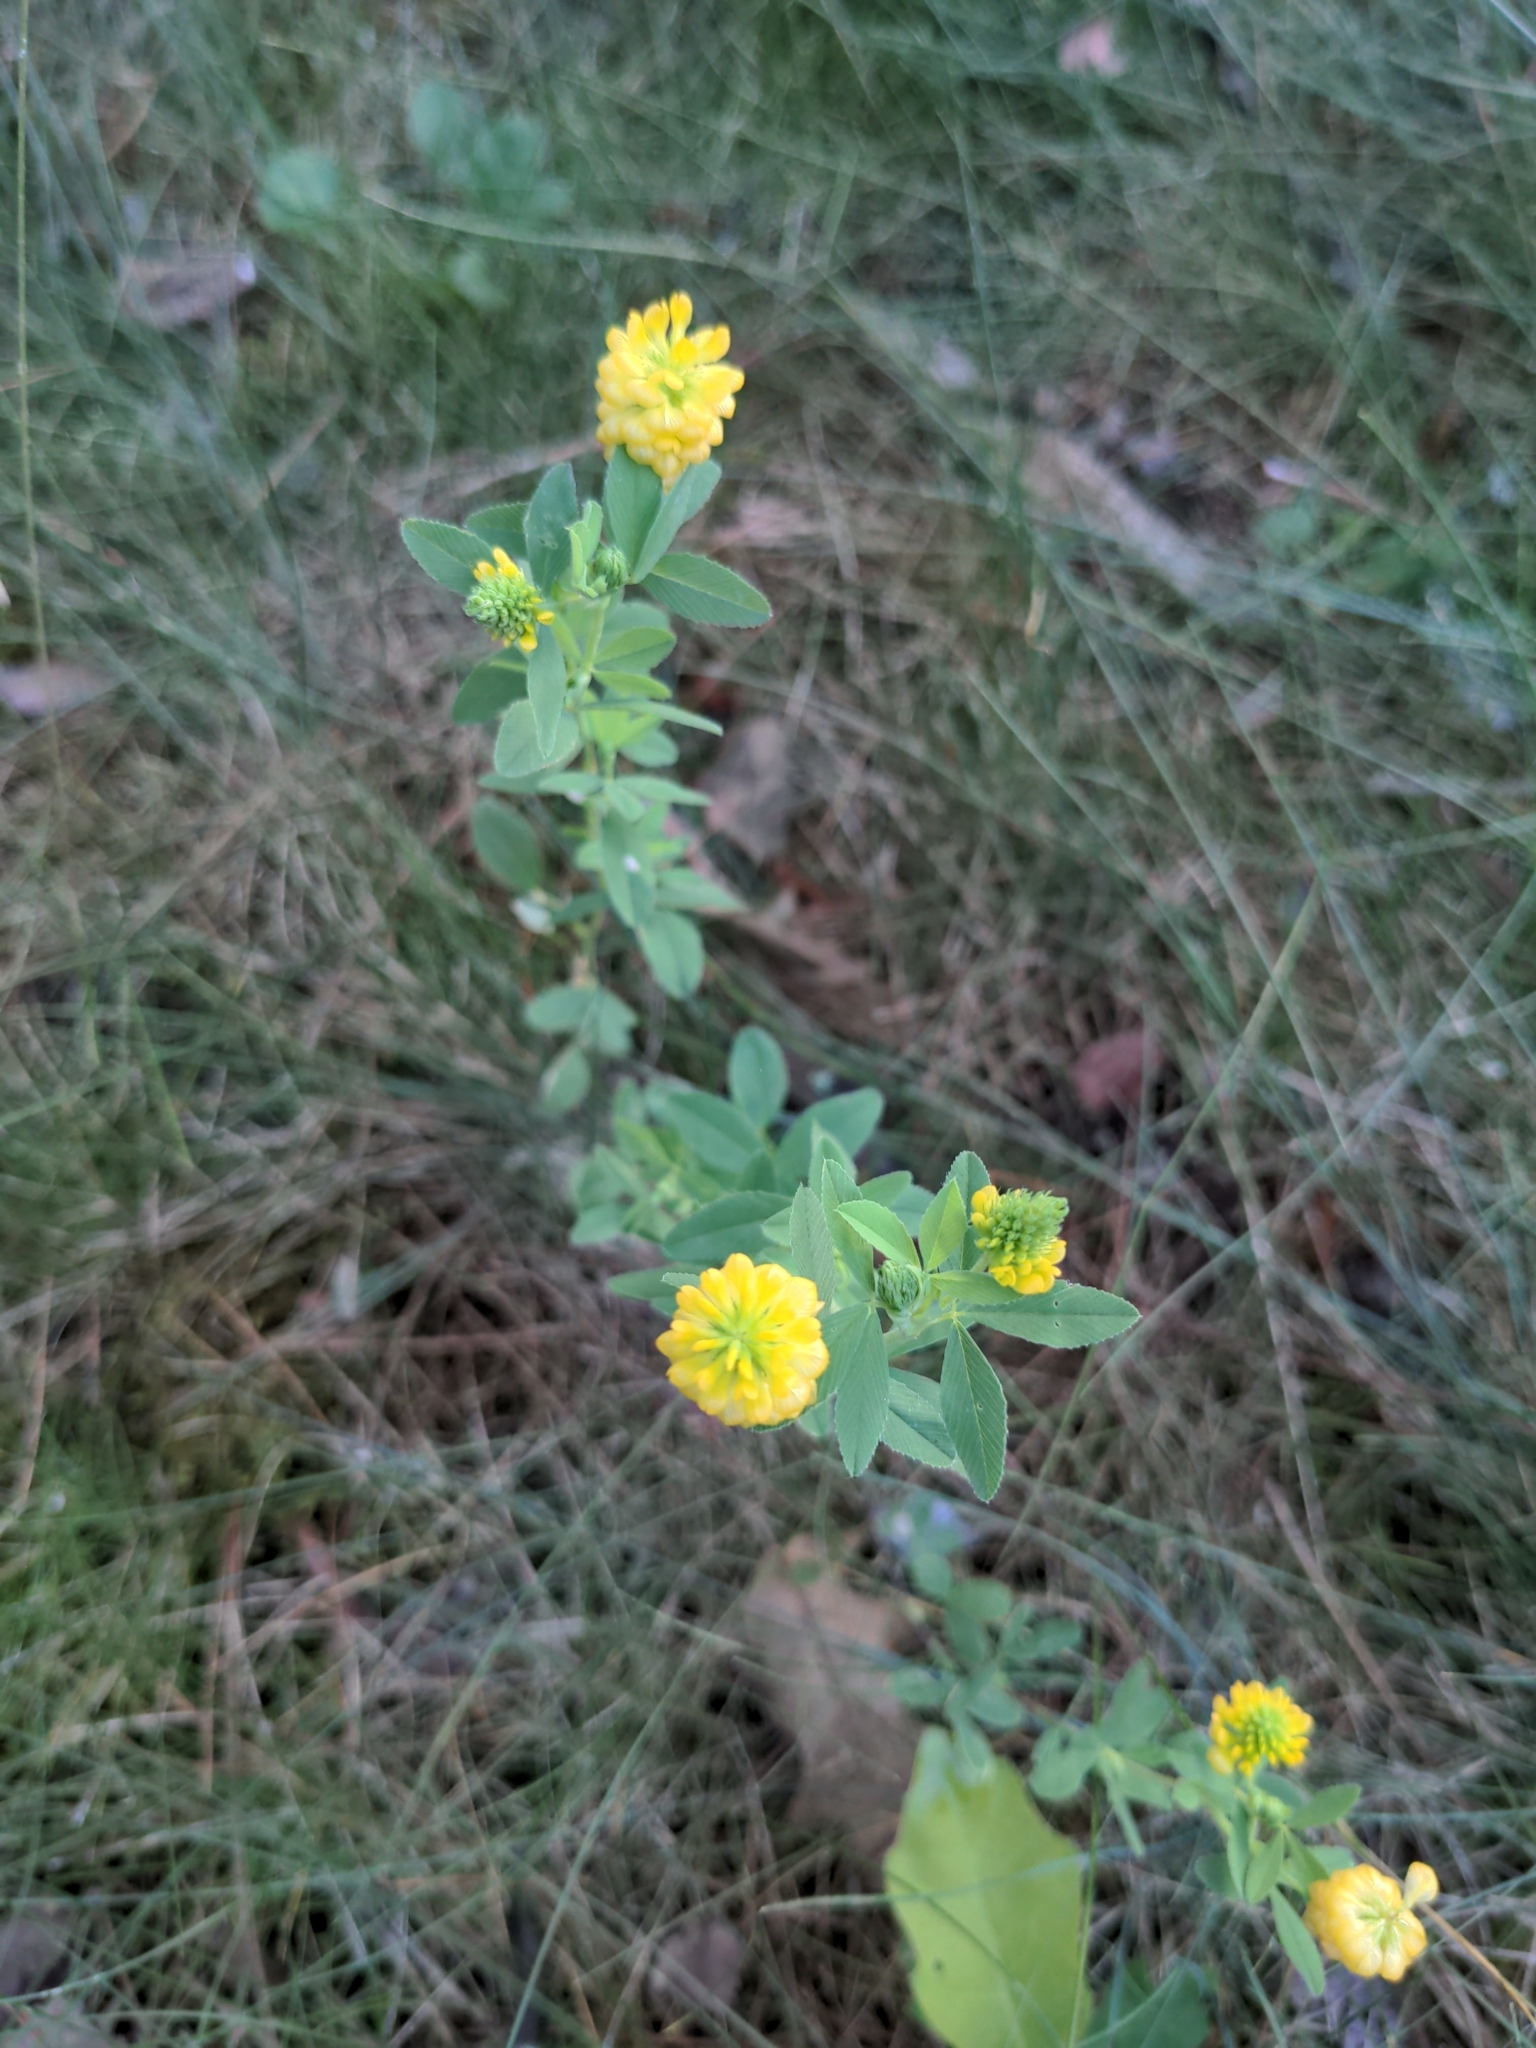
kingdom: Plantae
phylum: Tracheophyta
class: Magnoliopsida
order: Fabales
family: Fabaceae
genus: Trifolium
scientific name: Trifolium aureum
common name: Golden clover
